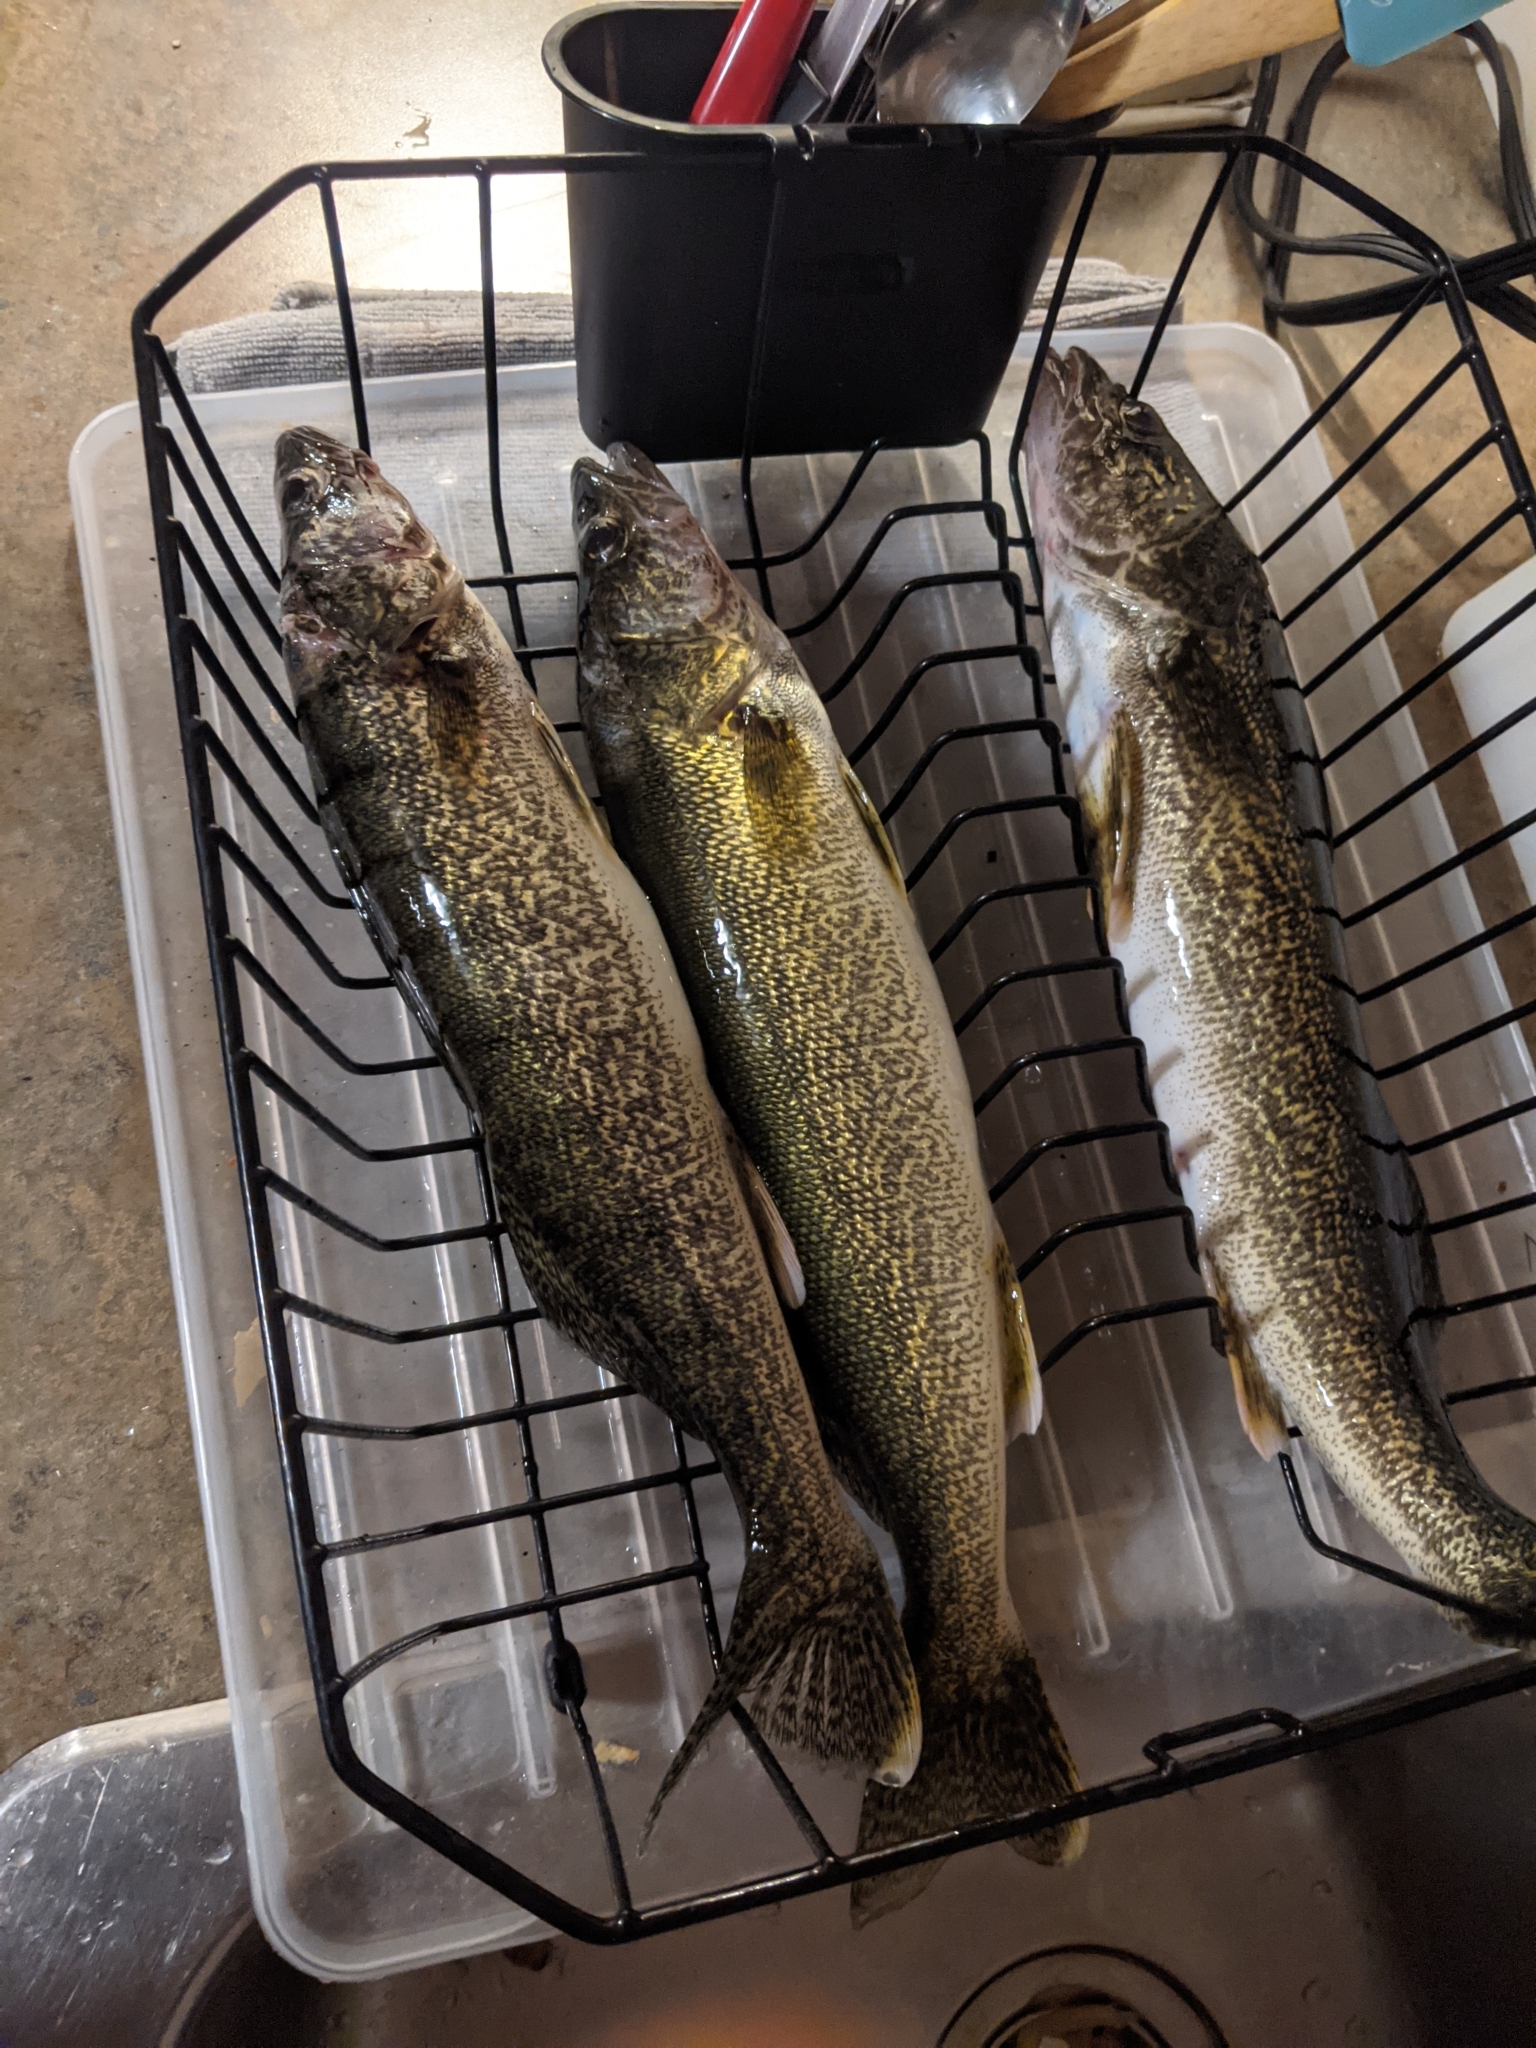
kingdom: Animalia
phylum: Chordata
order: Perciformes
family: Percidae
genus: Sander
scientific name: Sander vitreus
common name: Walleye
